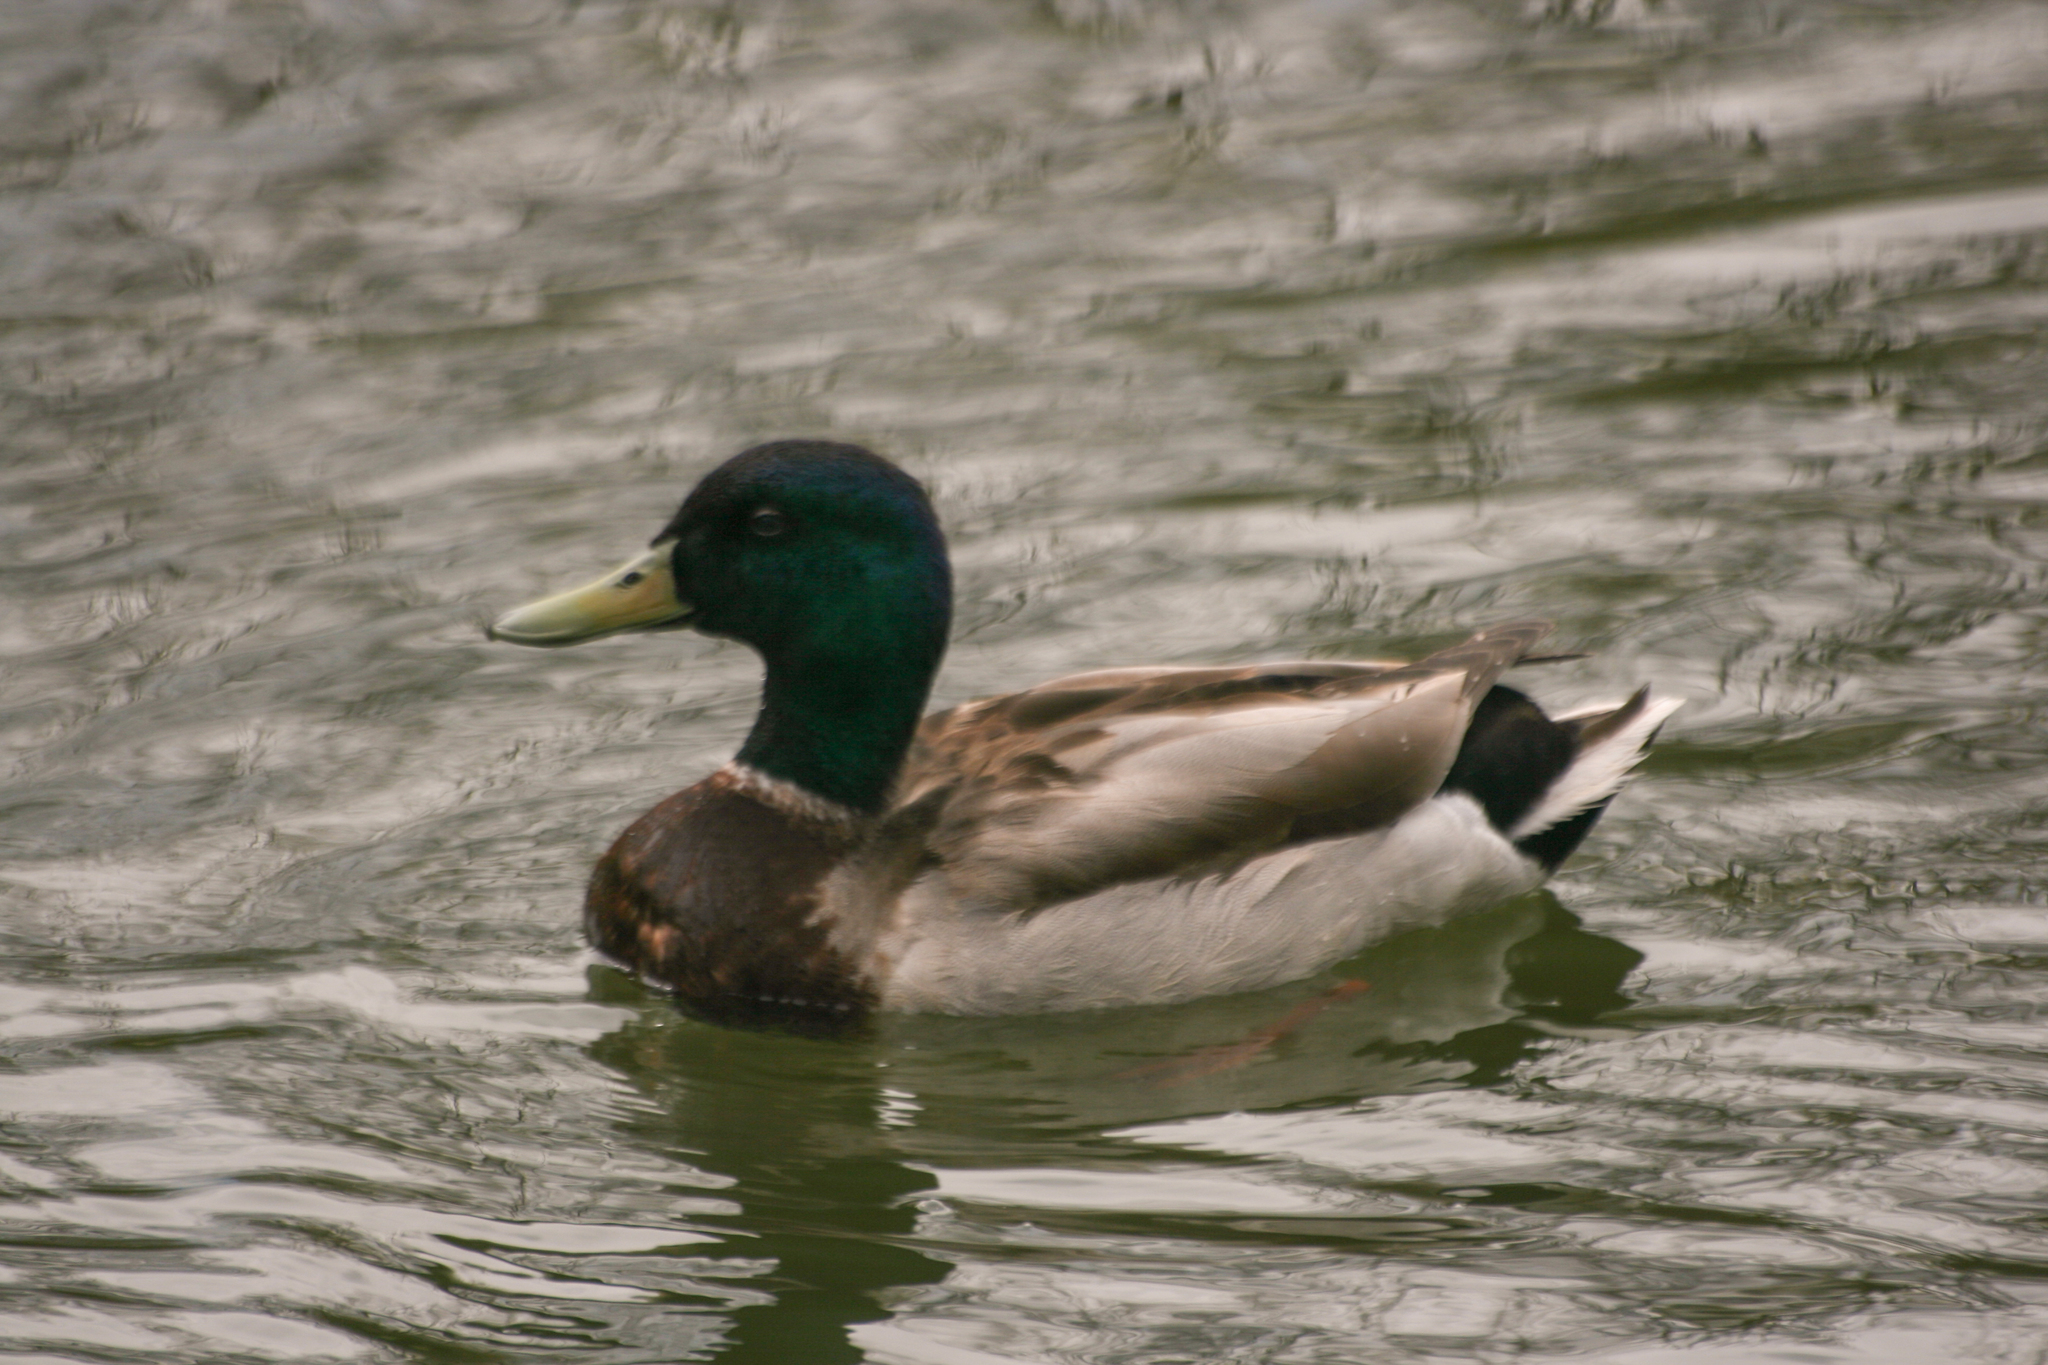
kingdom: Animalia
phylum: Chordata
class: Aves
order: Anseriformes
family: Anatidae
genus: Anas
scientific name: Anas platyrhynchos
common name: Mallard
